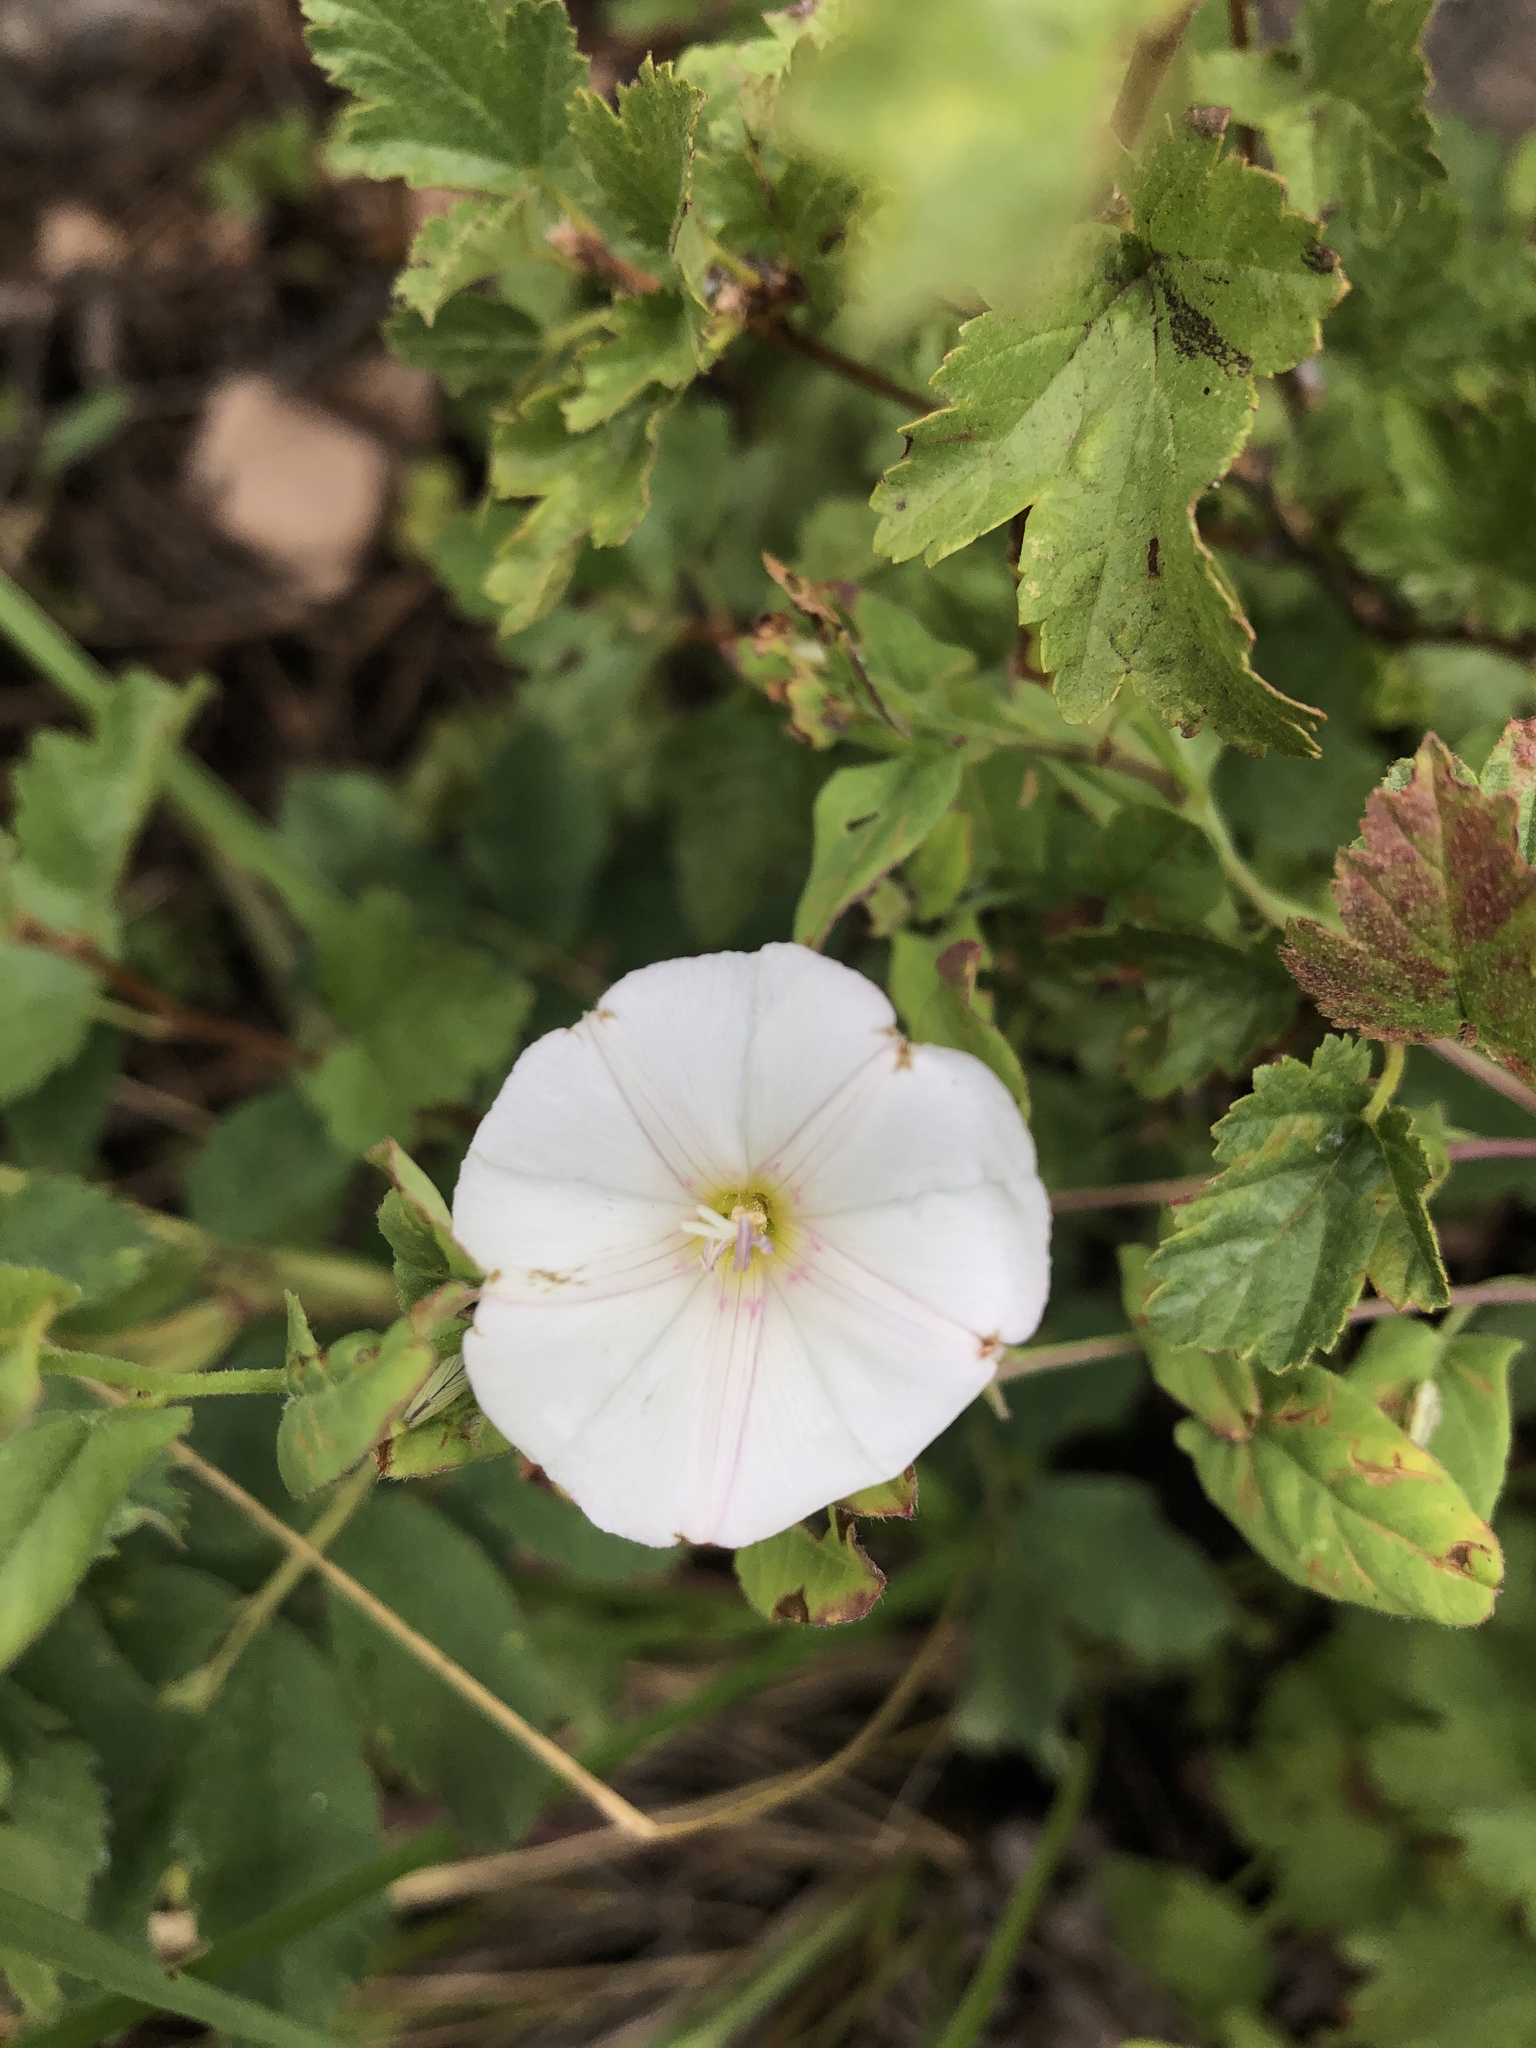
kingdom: Plantae
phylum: Tracheophyta
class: Magnoliopsida
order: Solanales
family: Convolvulaceae
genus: Convolvulus
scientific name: Convolvulus arvensis
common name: Field bindweed
